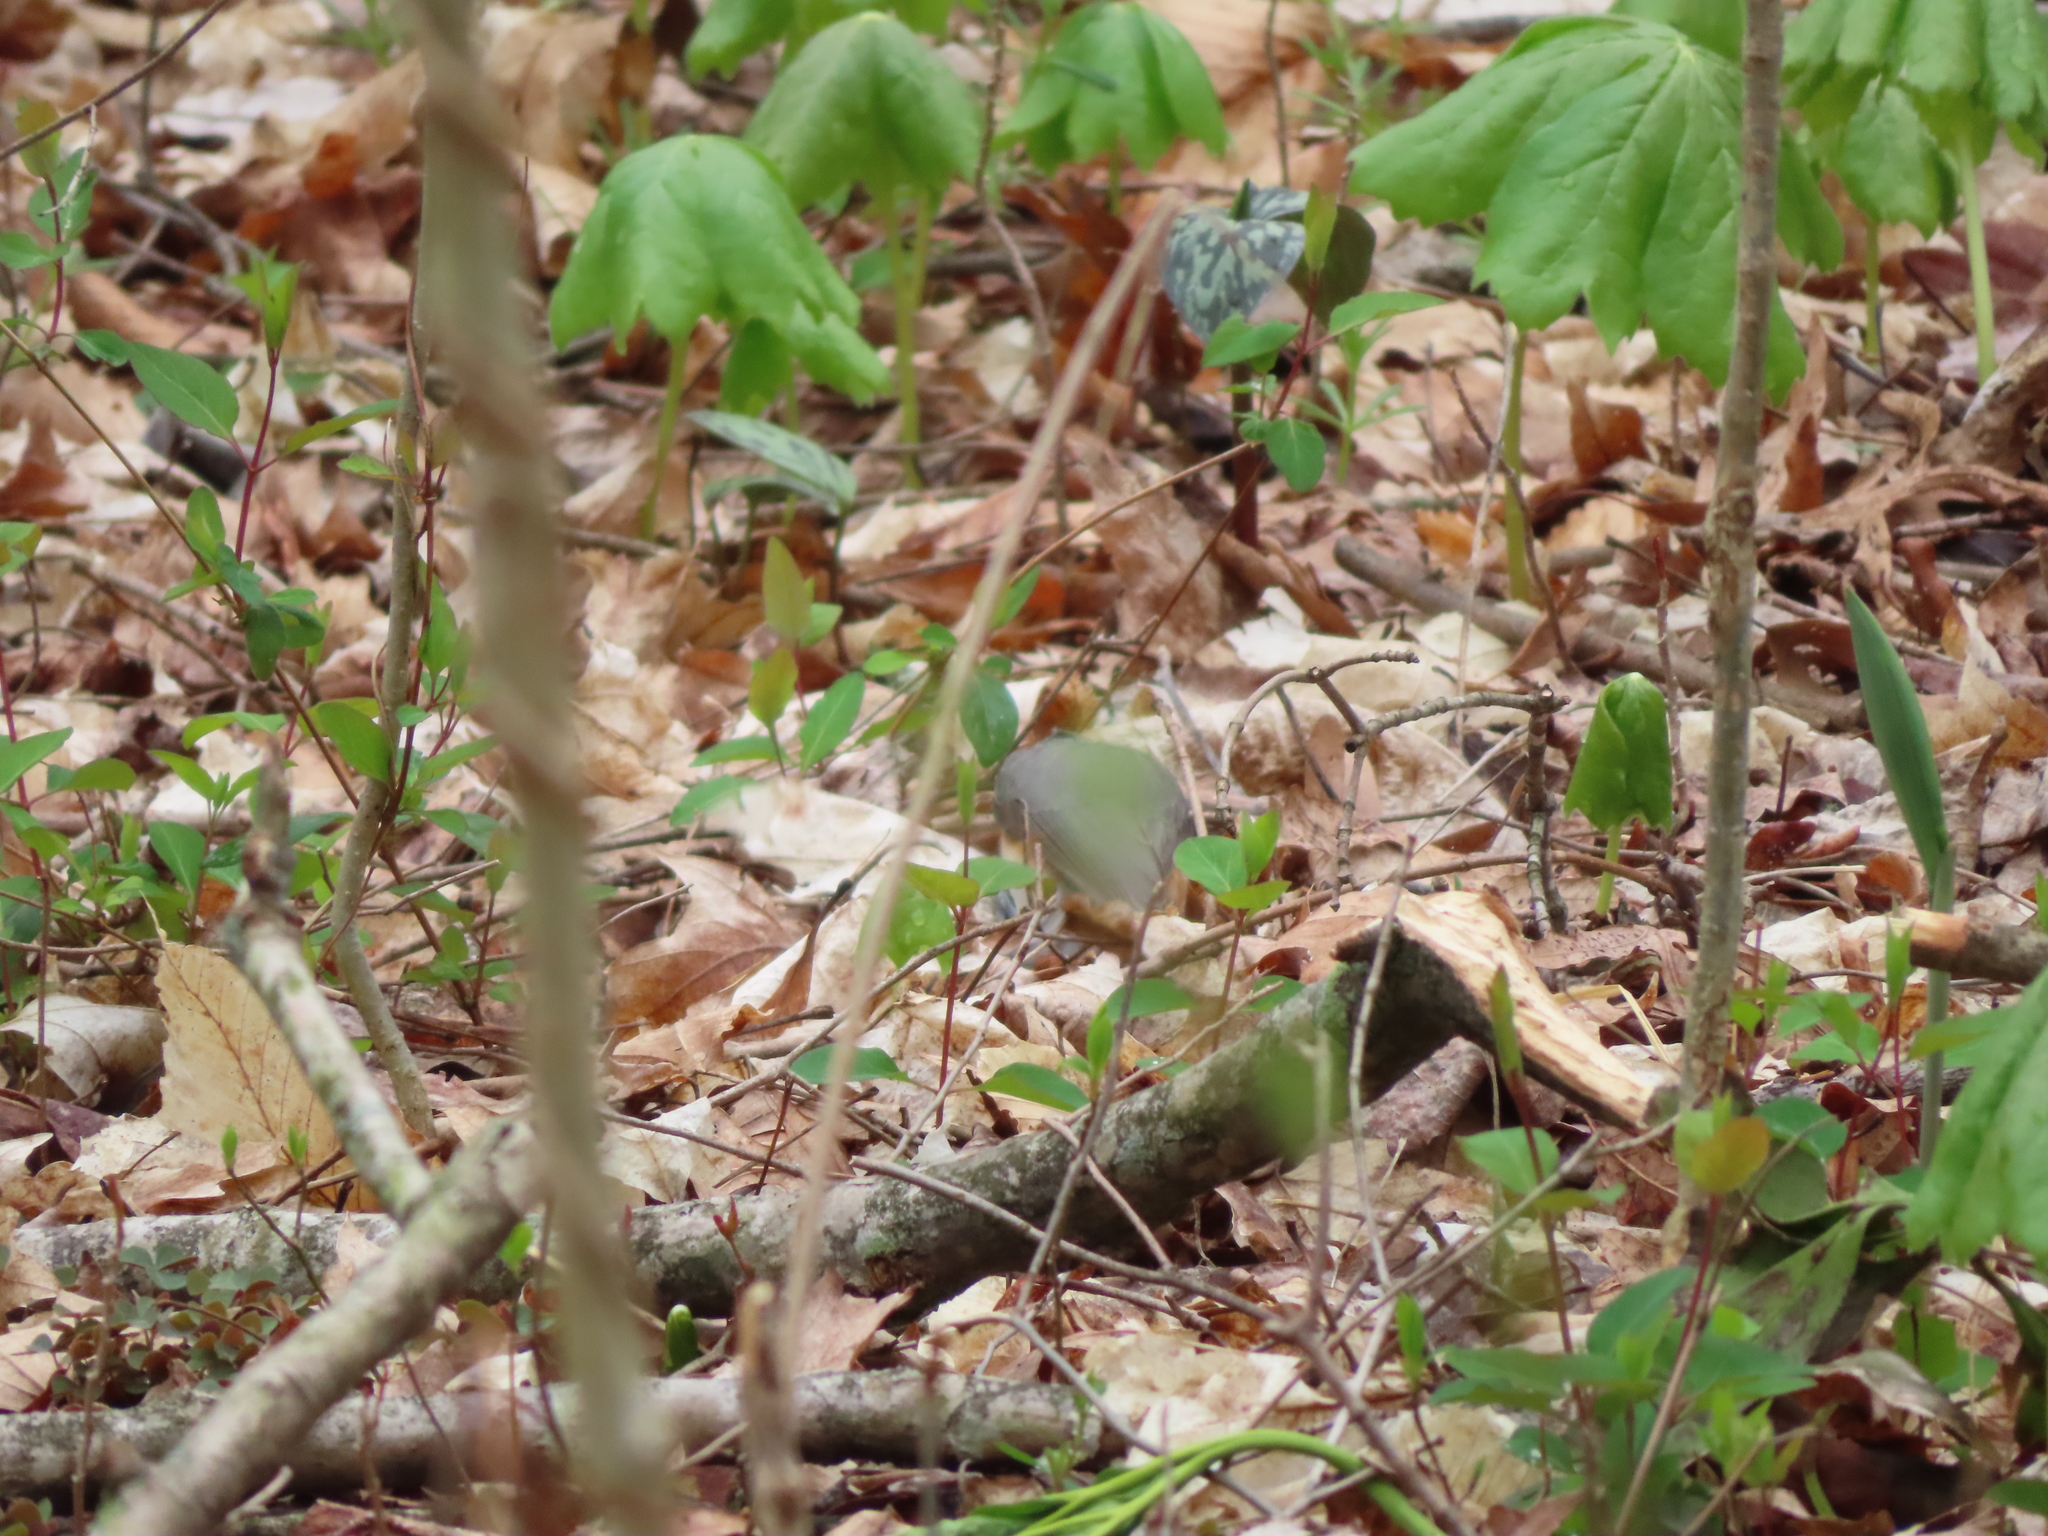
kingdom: Animalia
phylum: Chordata
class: Aves
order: Passeriformes
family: Paridae
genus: Baeolophus
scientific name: Baeolophus bicolor
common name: Tufted titmouse
